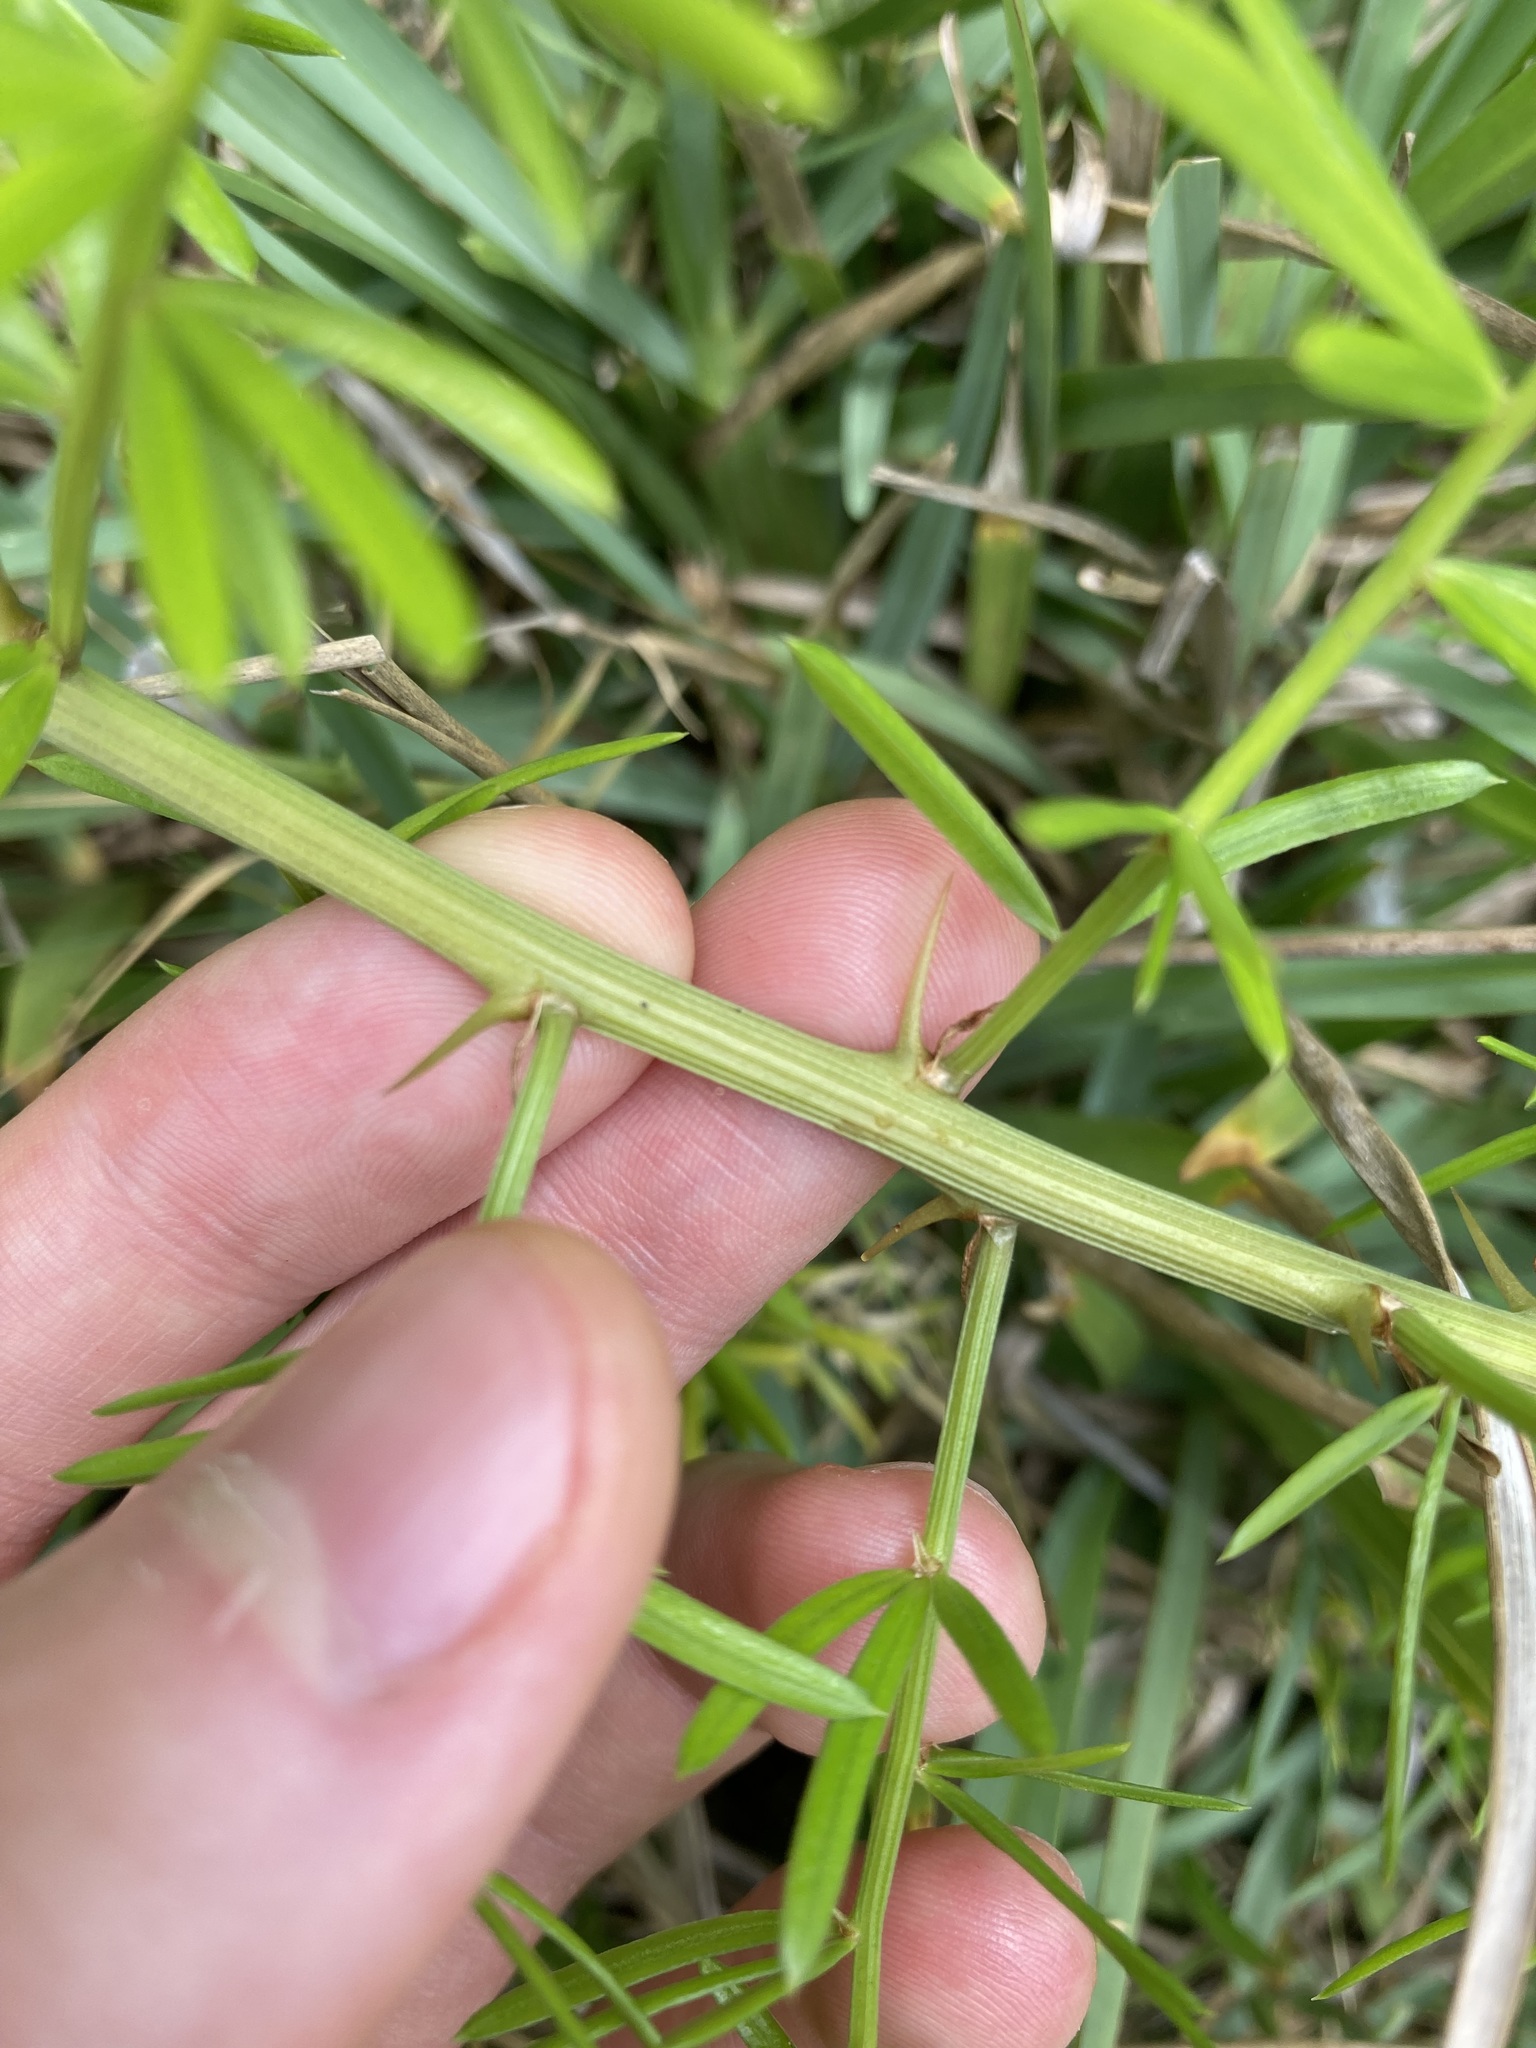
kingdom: Plantae
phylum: Tracheophyta
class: Liliopsida
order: Asparagales
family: Asparagaceae
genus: Asparagus
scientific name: Asparagus aethiopicus
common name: Sprenger's asparagus fern
